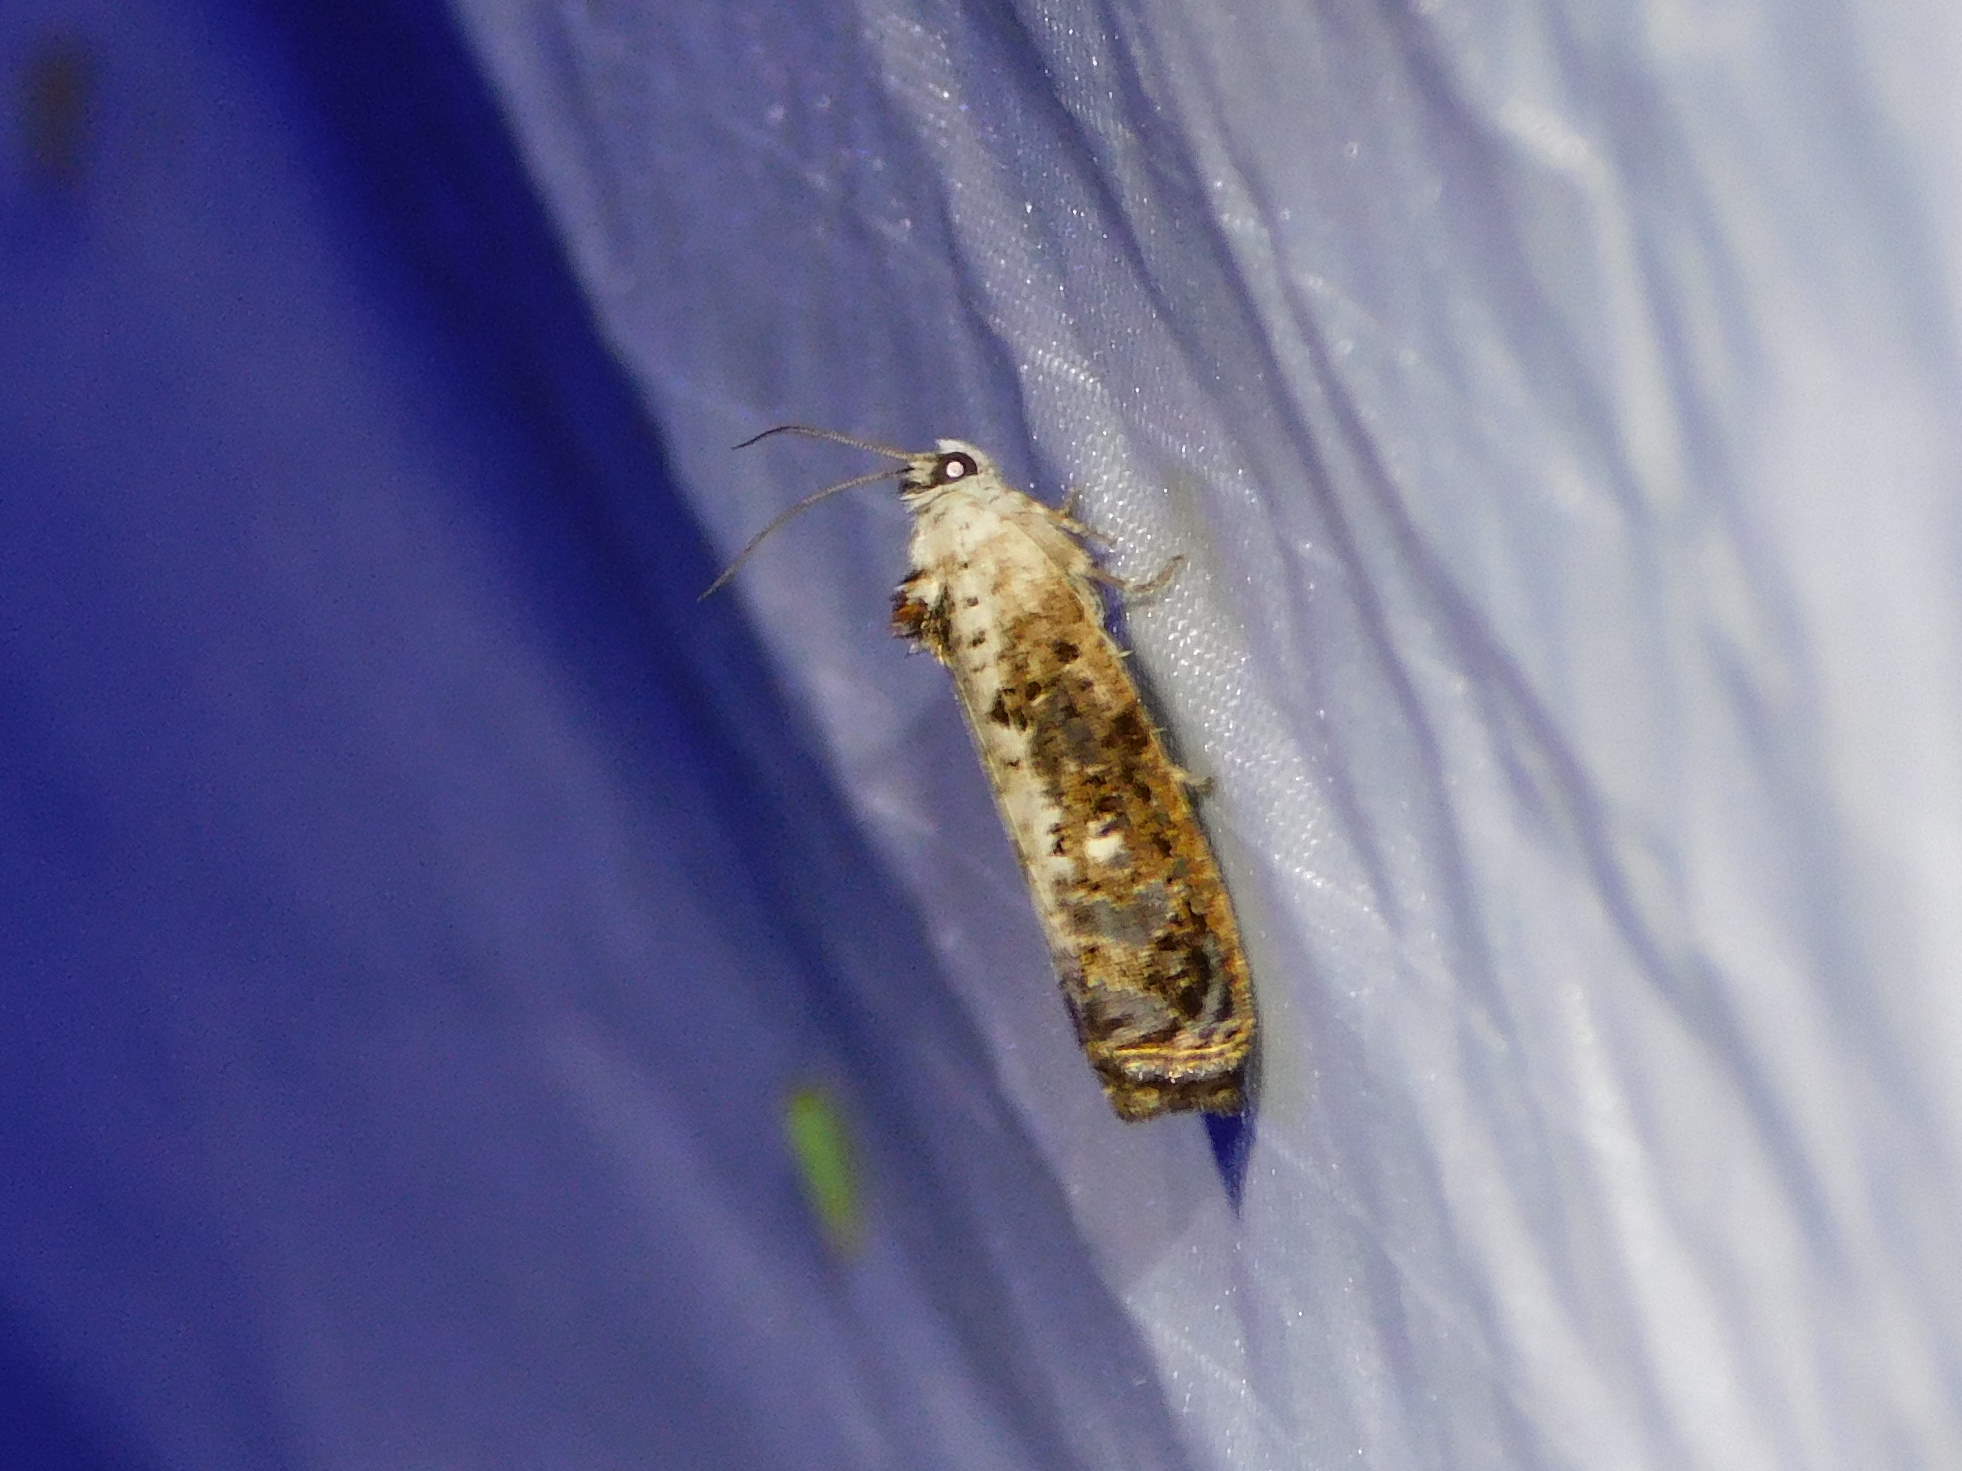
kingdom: Animalia
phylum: Arthropoda
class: Insecta
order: Lepidoptera
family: Tortricidae
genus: Hedya
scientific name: Hedya salicella
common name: Large tortricid moth
